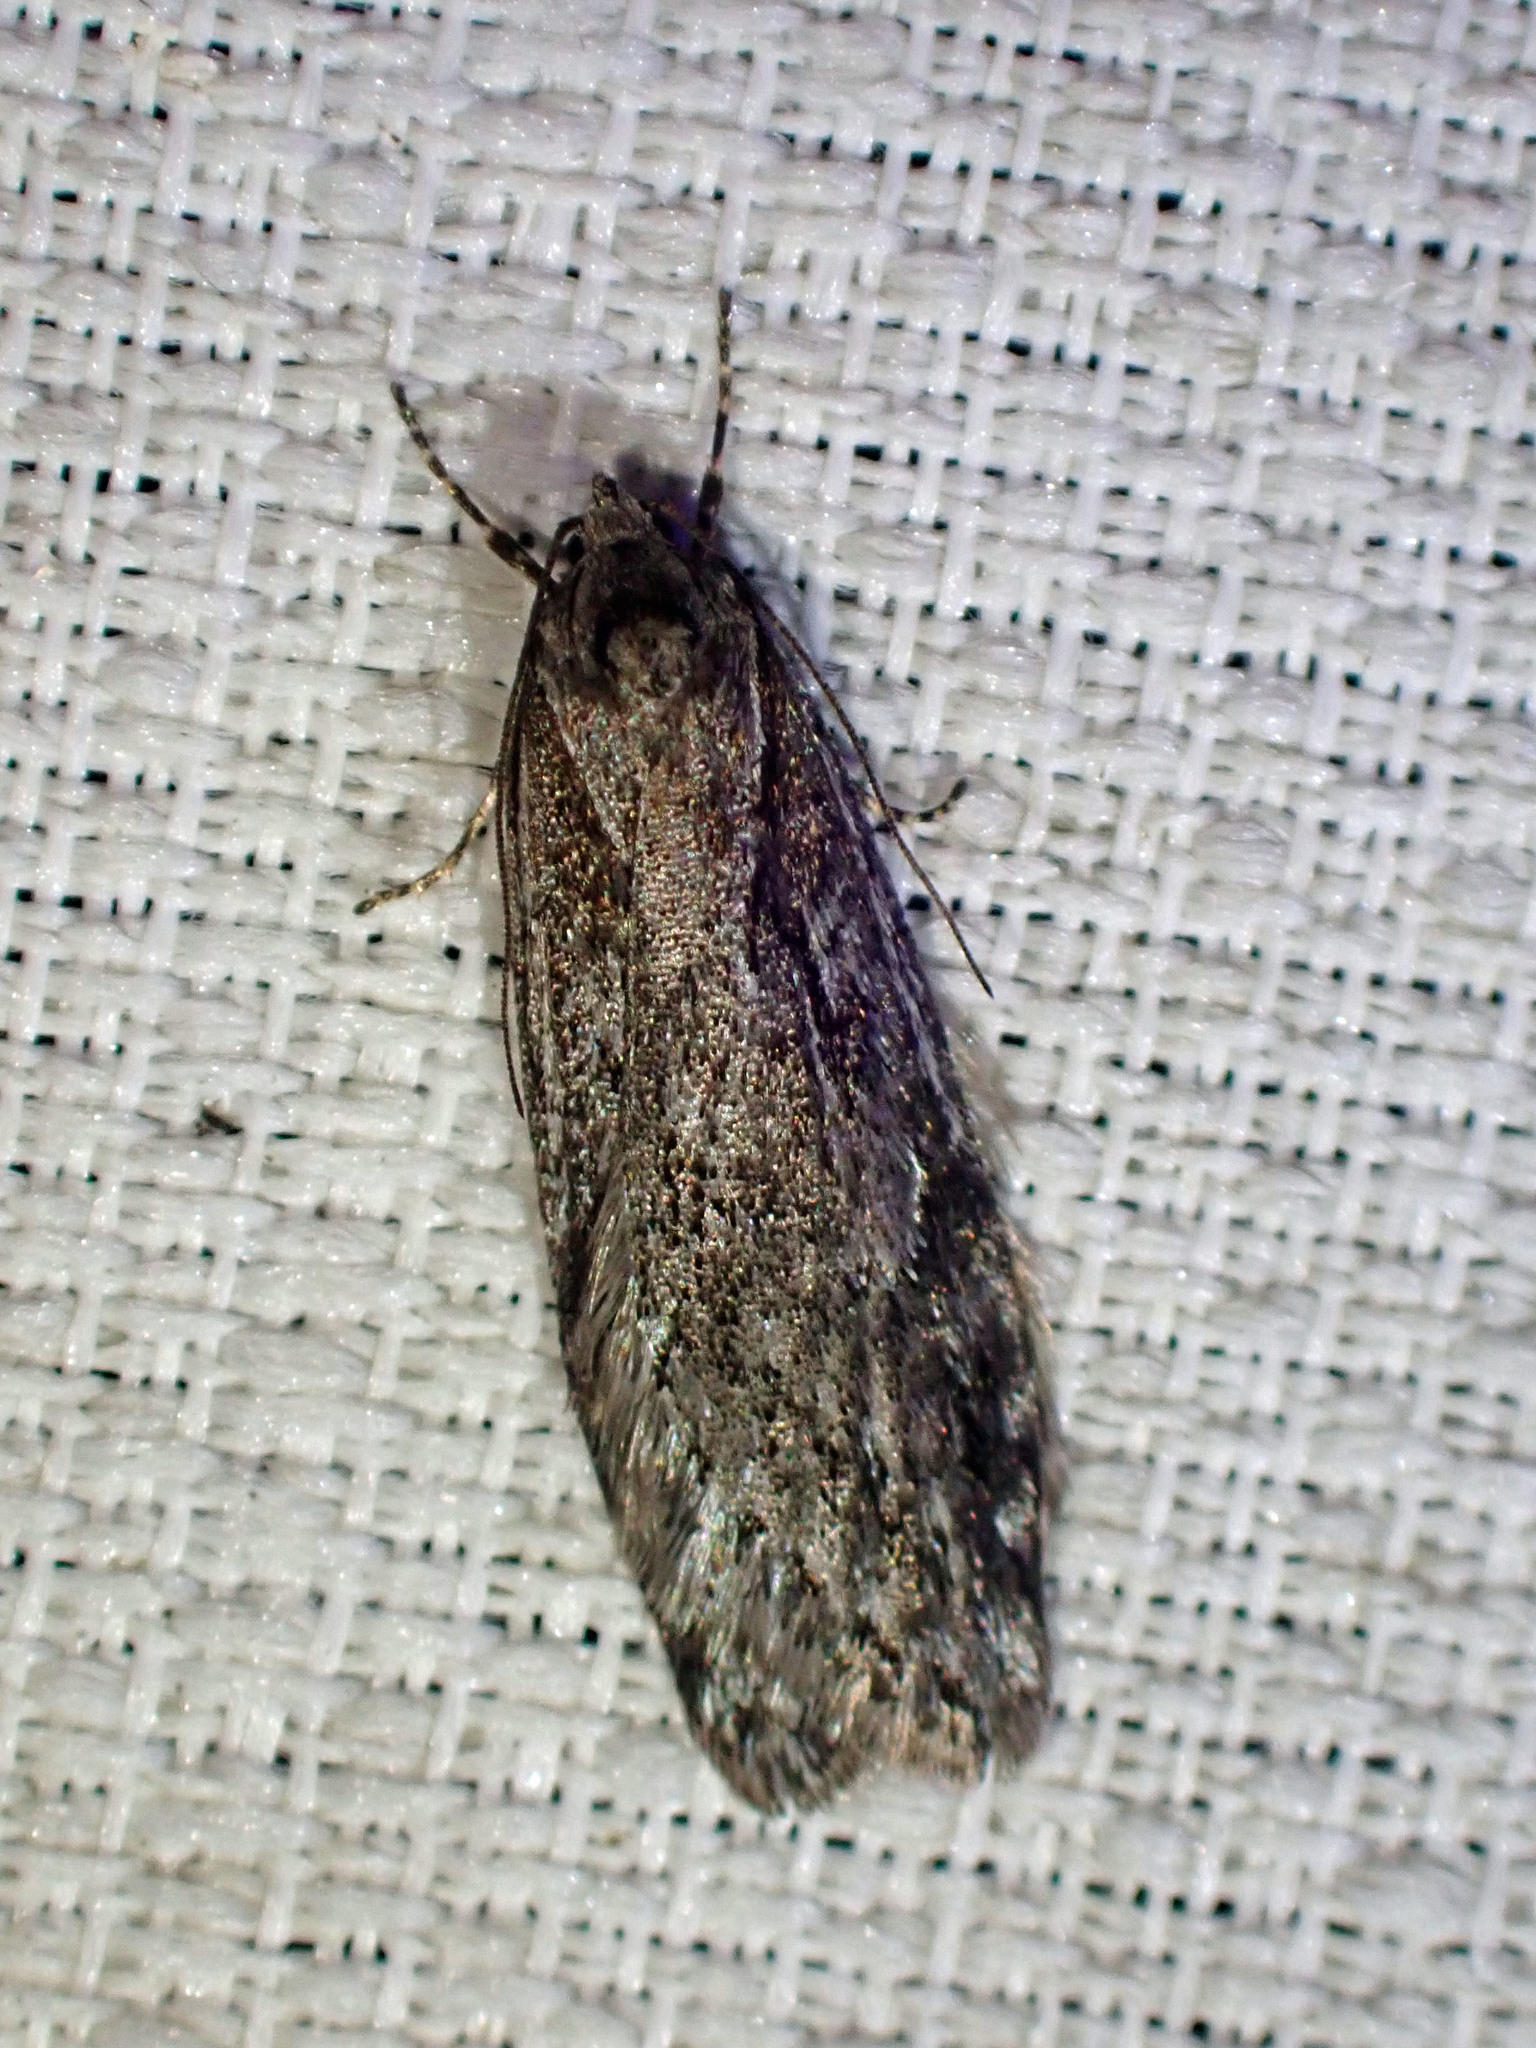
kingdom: Animalia
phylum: Arthropoda
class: Insecta
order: Lepidoptera
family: Depressariidae
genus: Semioscopis
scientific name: Semioscopis aurorella
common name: Aurora flatbody moth
